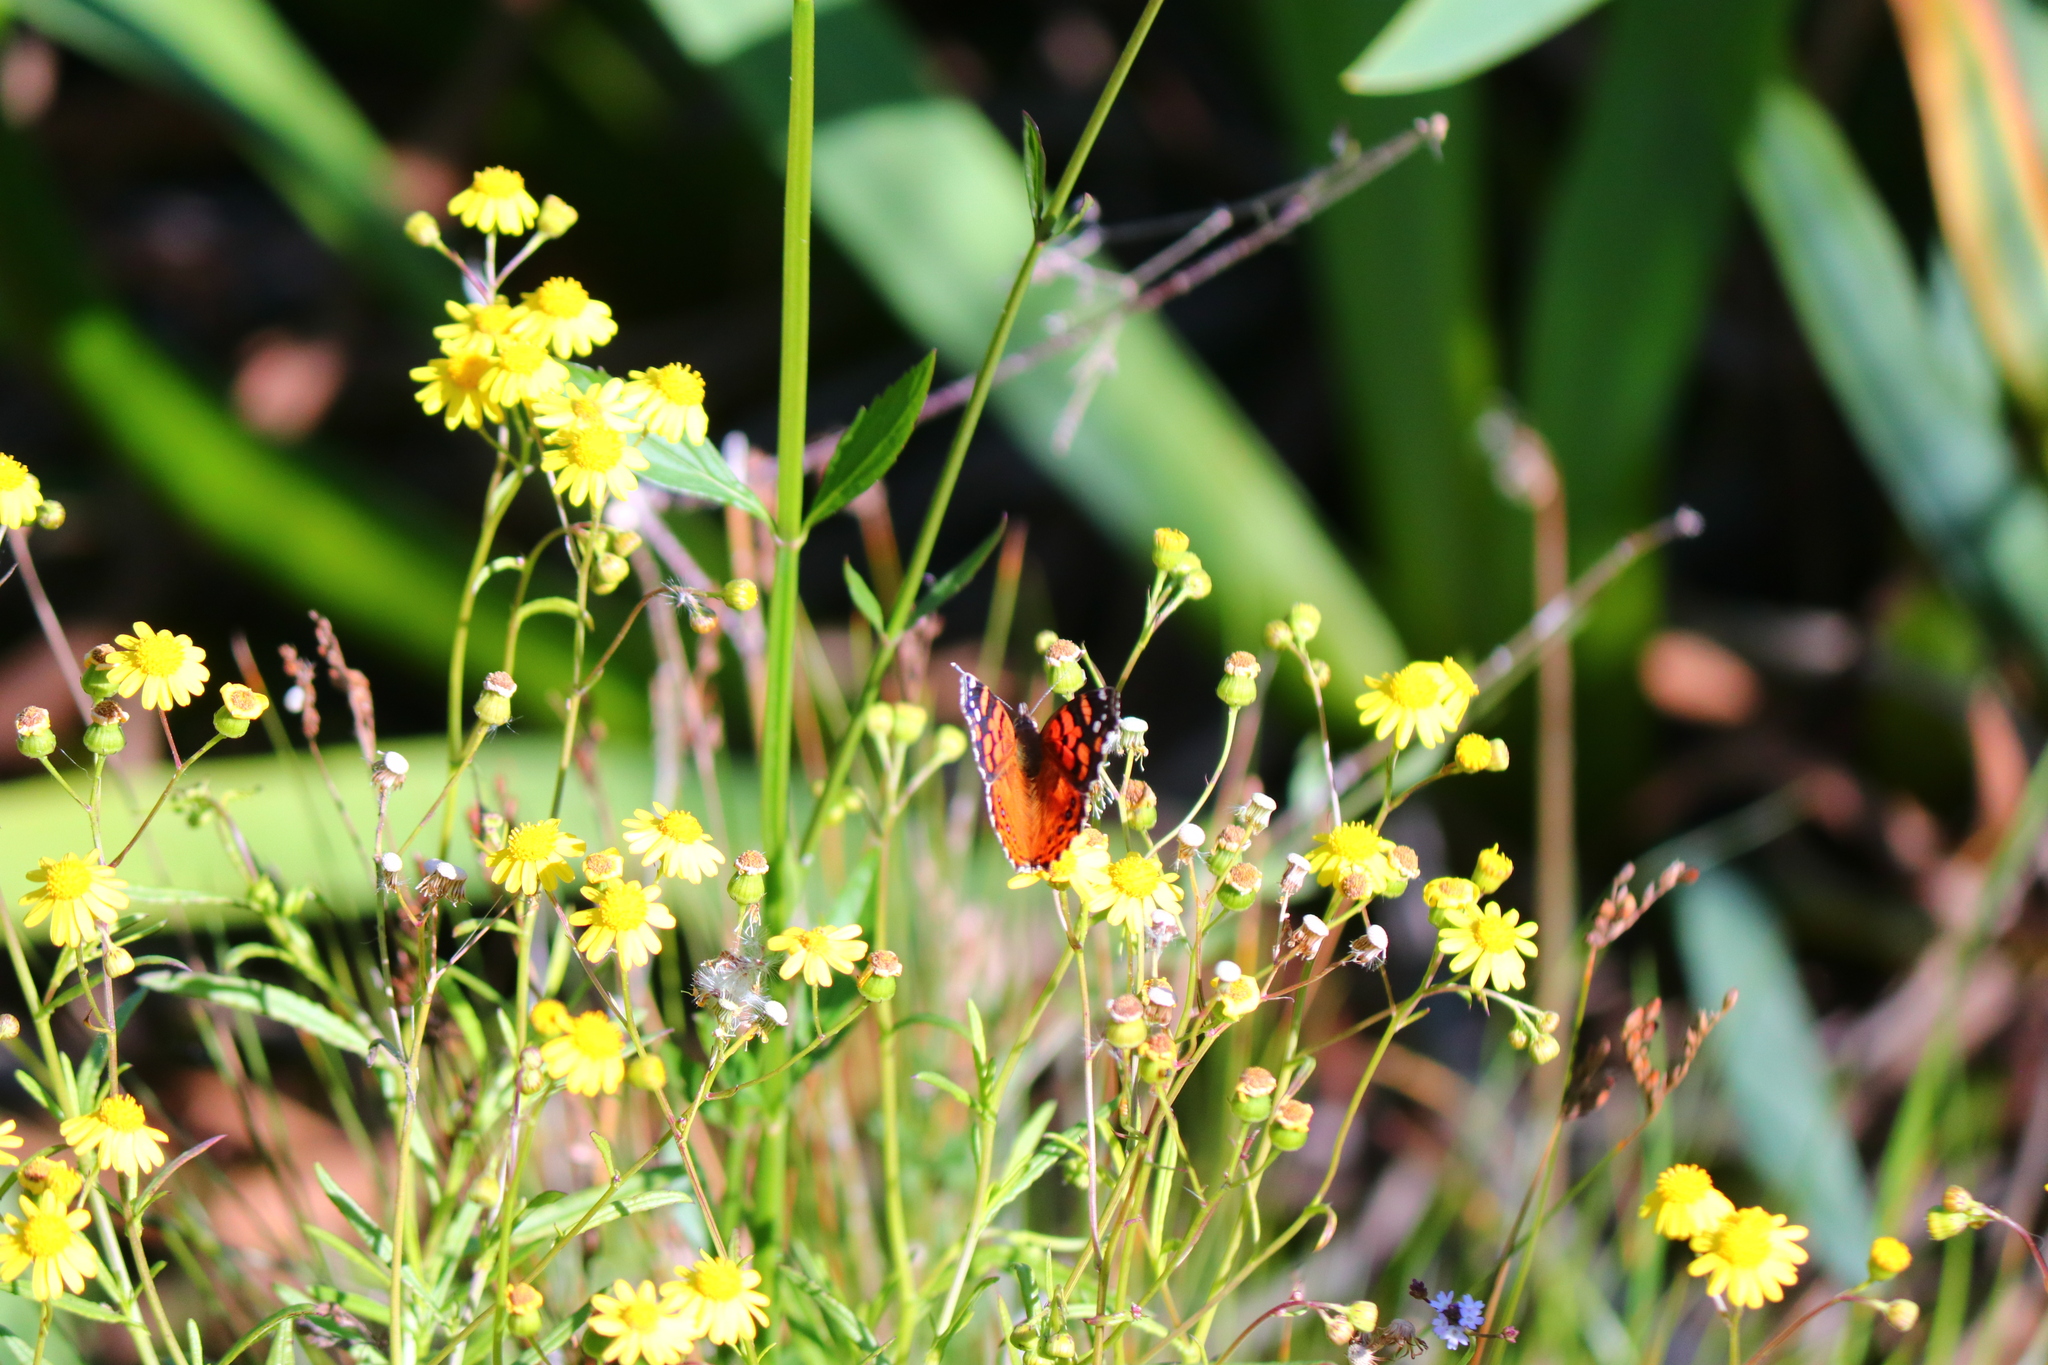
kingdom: Animalia
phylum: Arthropoda
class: Insecta
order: Lepidoptera
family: Nymphalidae
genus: Vanessa
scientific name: Vanessa carye
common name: Subtropical lady
